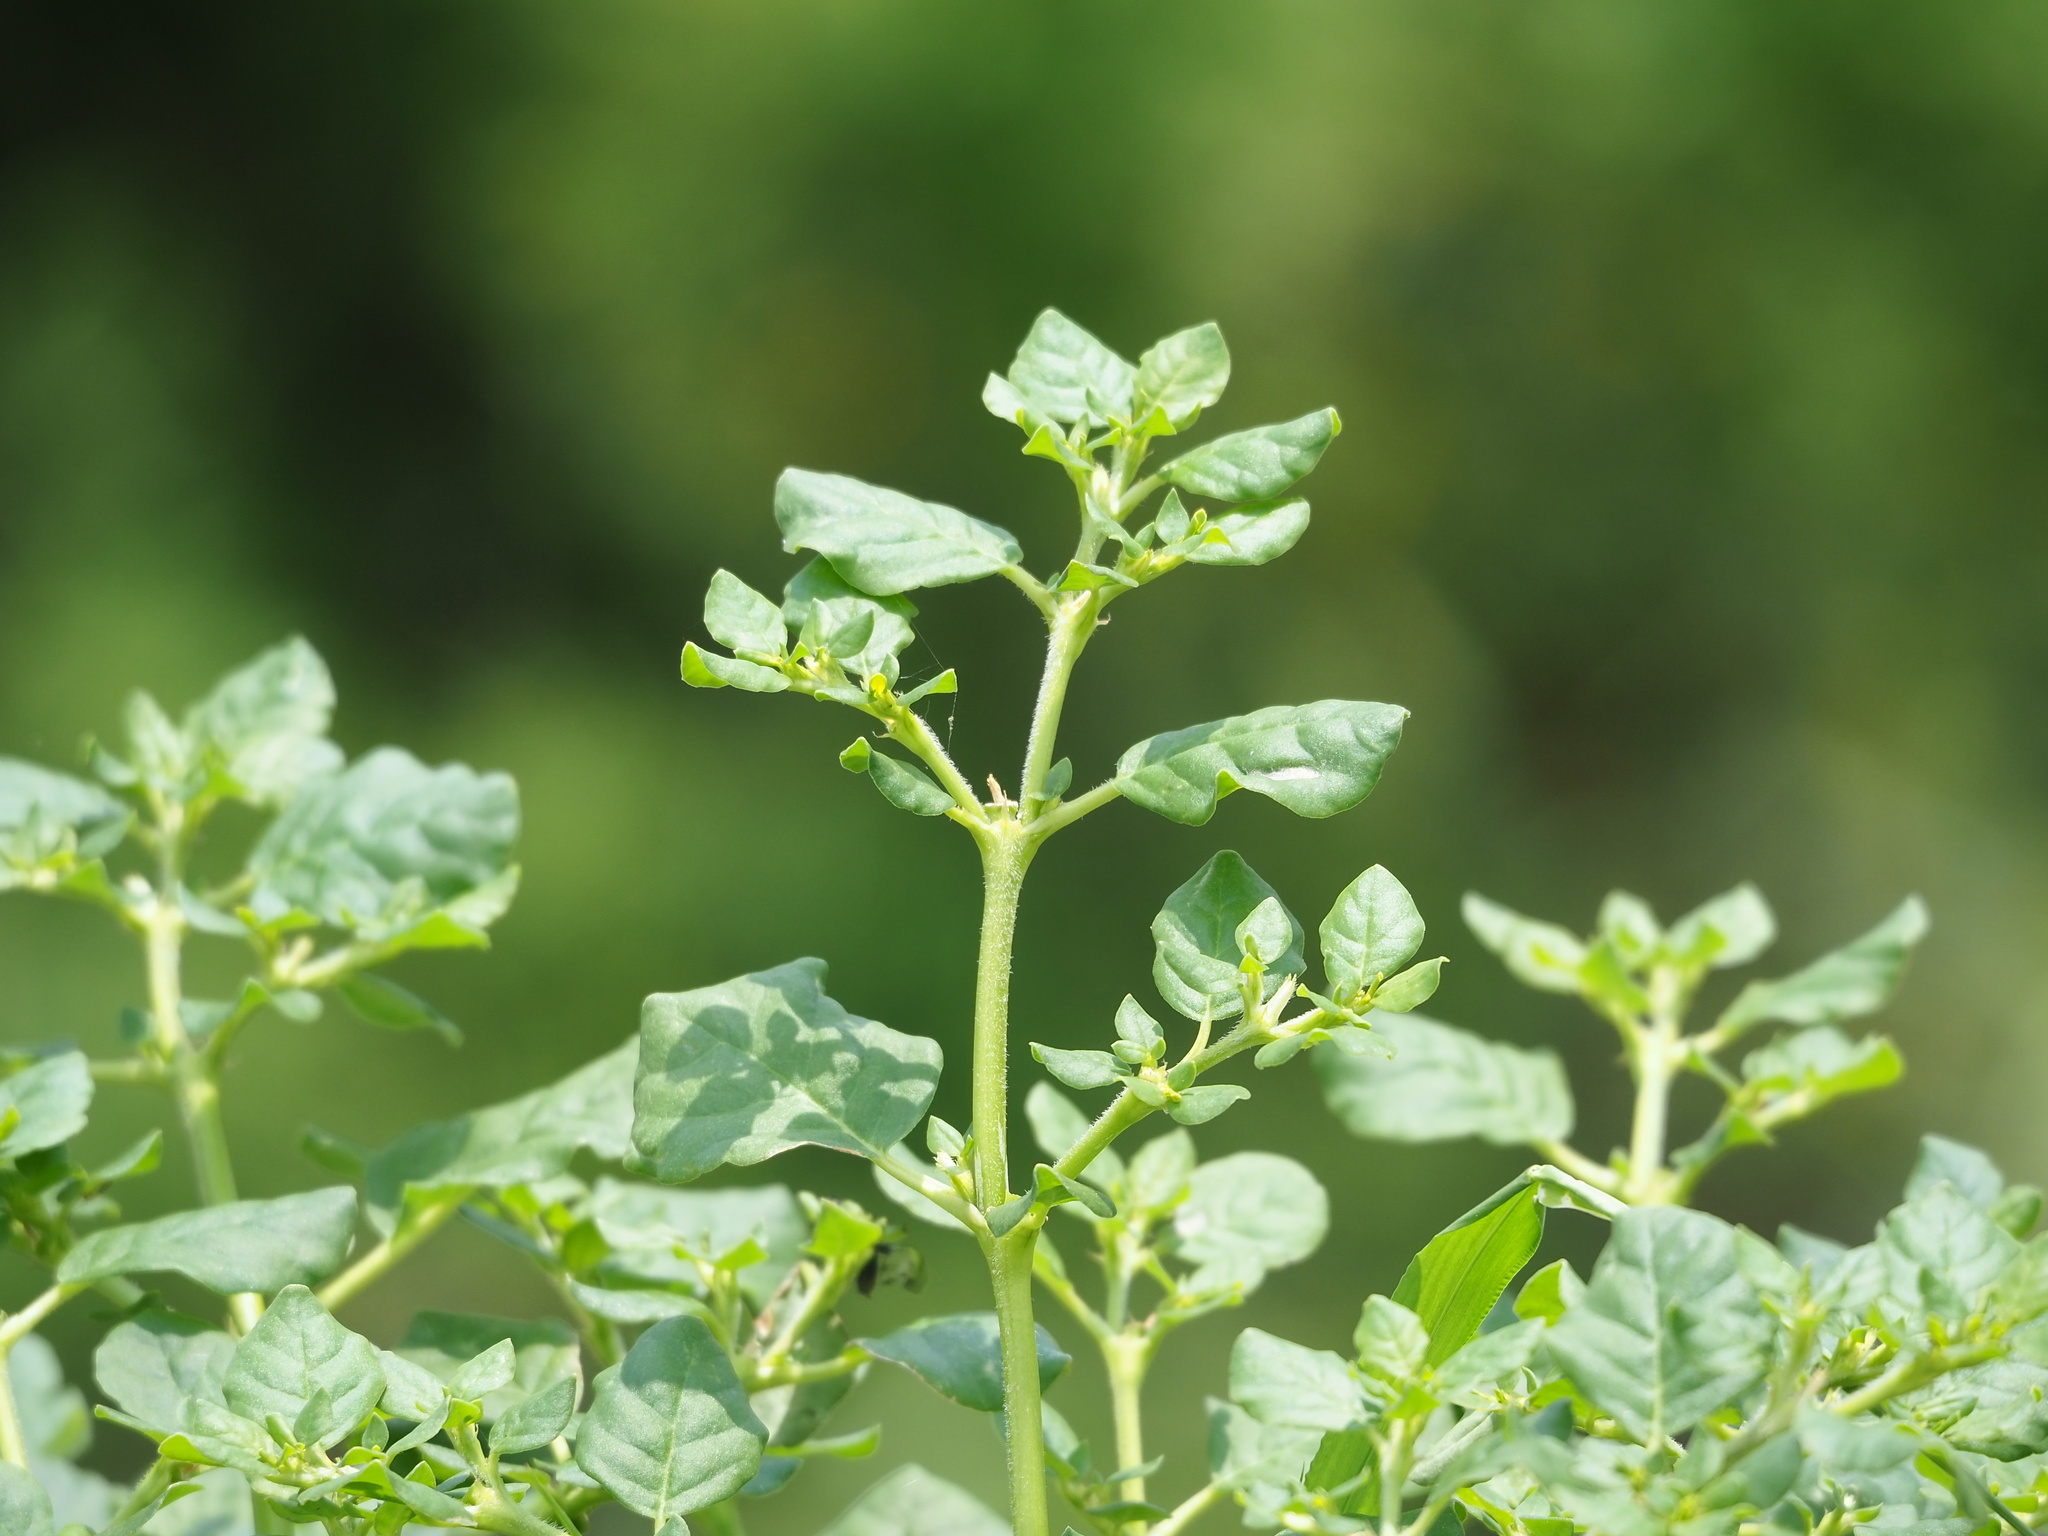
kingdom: Plantae
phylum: Tracheophyta
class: Magnoliopsida
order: Caryophyllales
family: Aizoaceae
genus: Trianthema
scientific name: Trianthema portulacastrum
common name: Desert horsepurslane
